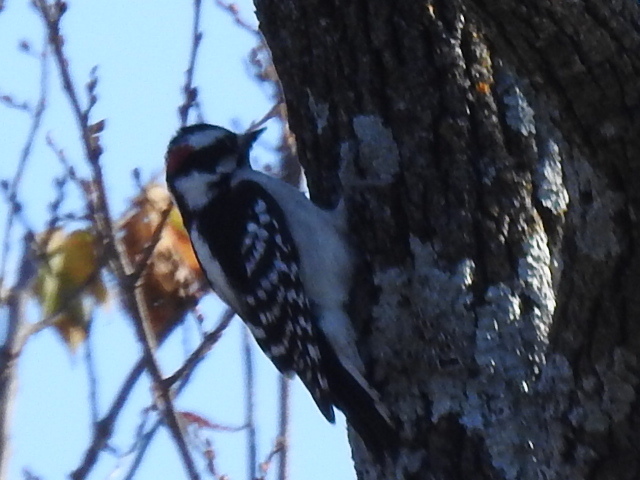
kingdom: Animalia
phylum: Chordata
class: Aves
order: Piciformes
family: Picidae
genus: Dryobates
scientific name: Dryobates pubescens
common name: Downy woodpecker
